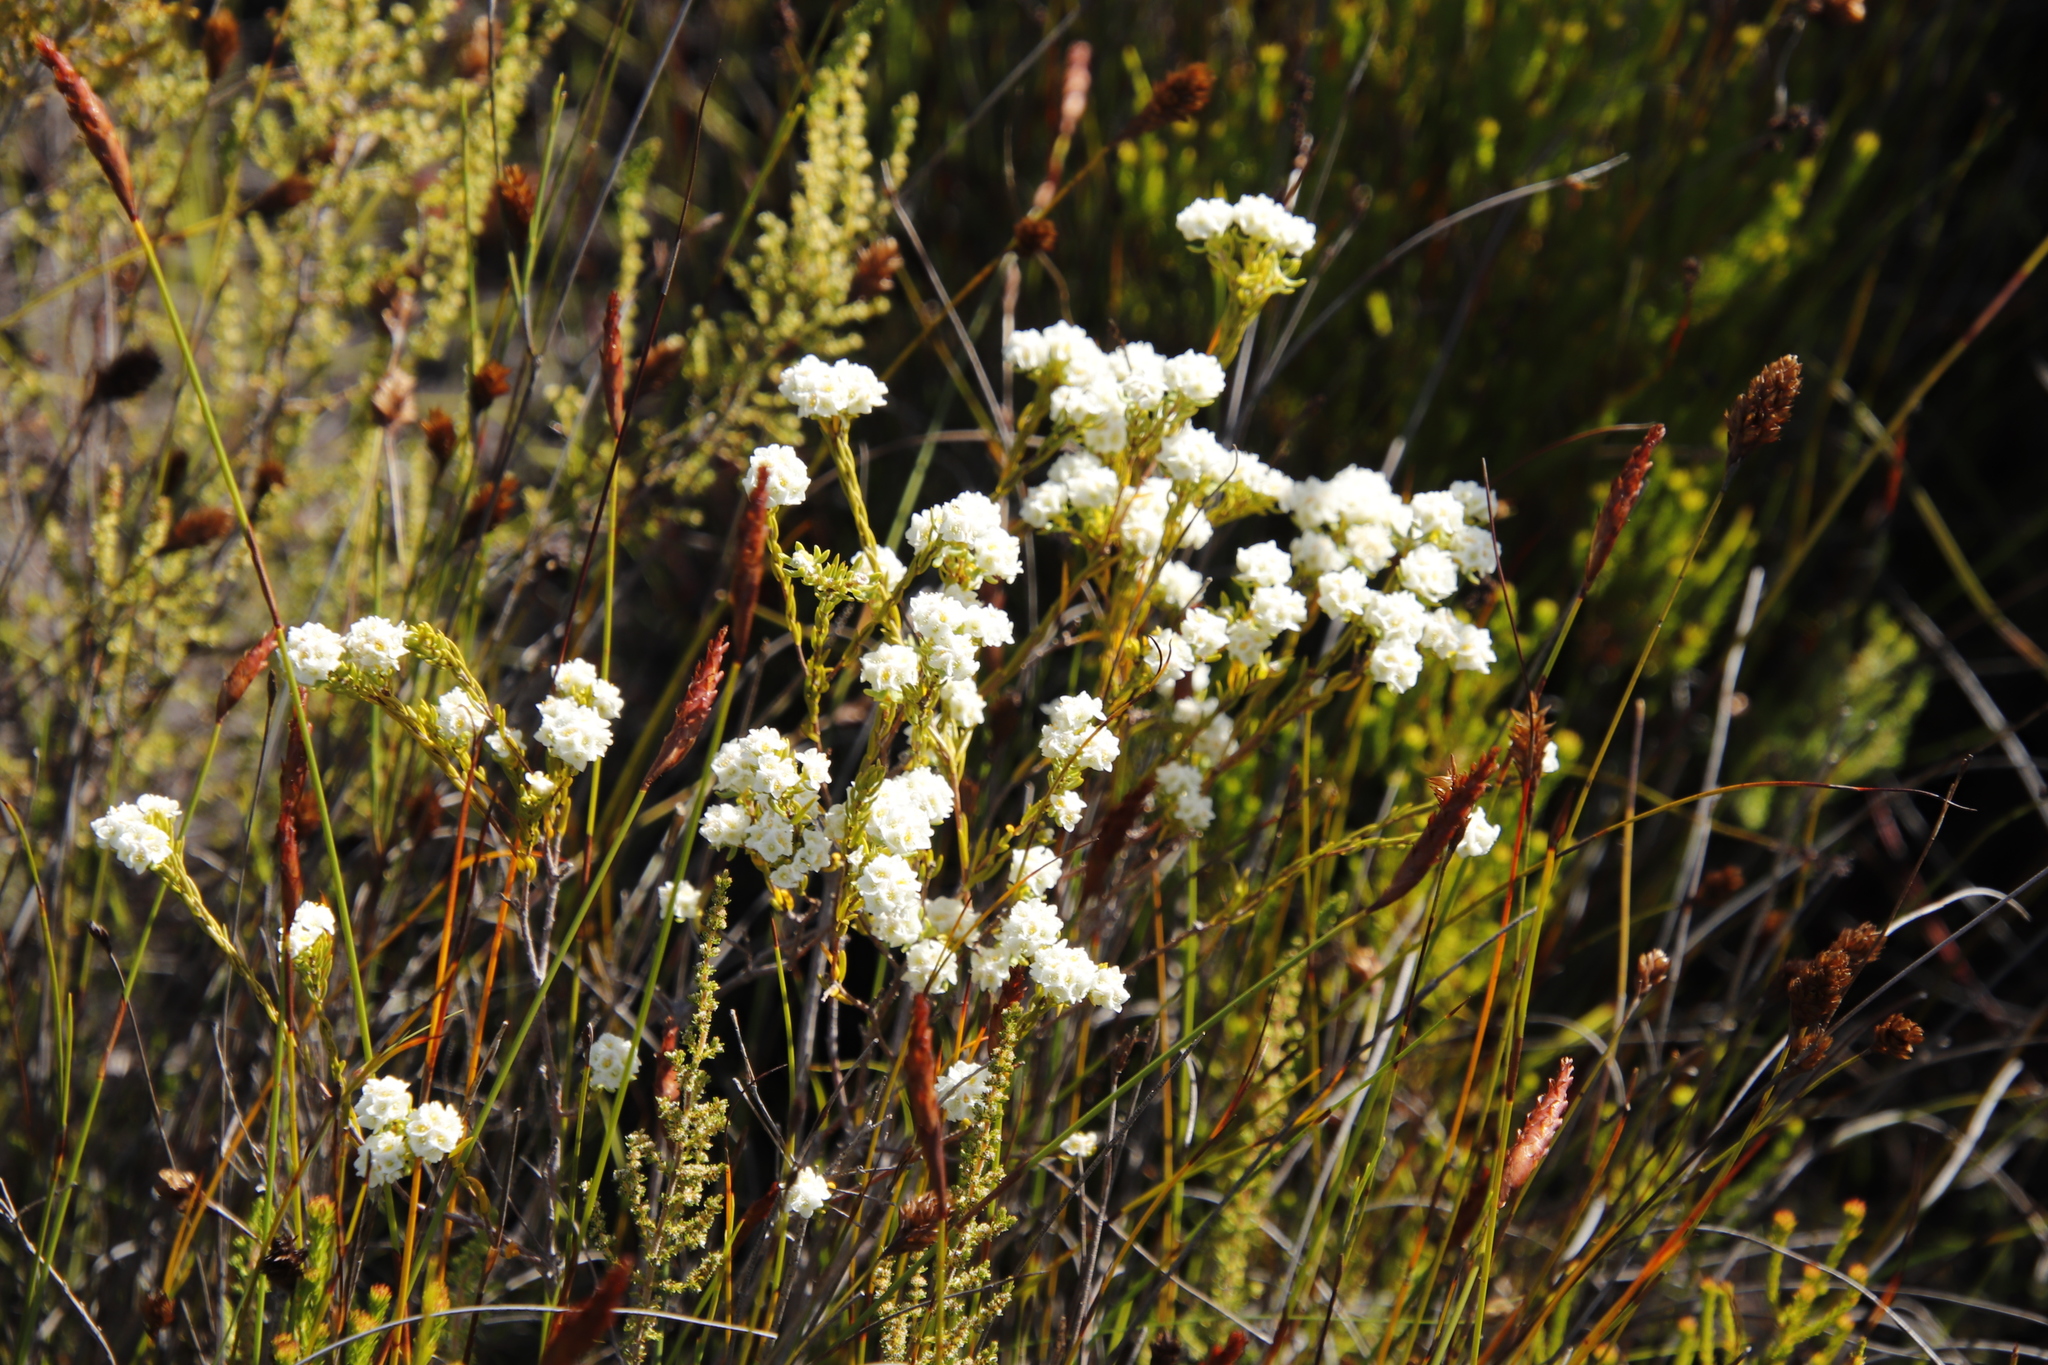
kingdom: Plantae
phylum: Tracheophyta
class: Magnoliopsida
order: Malvales
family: Thymelaeaceae
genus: Lachnaea
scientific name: Lachnaea densiflora
